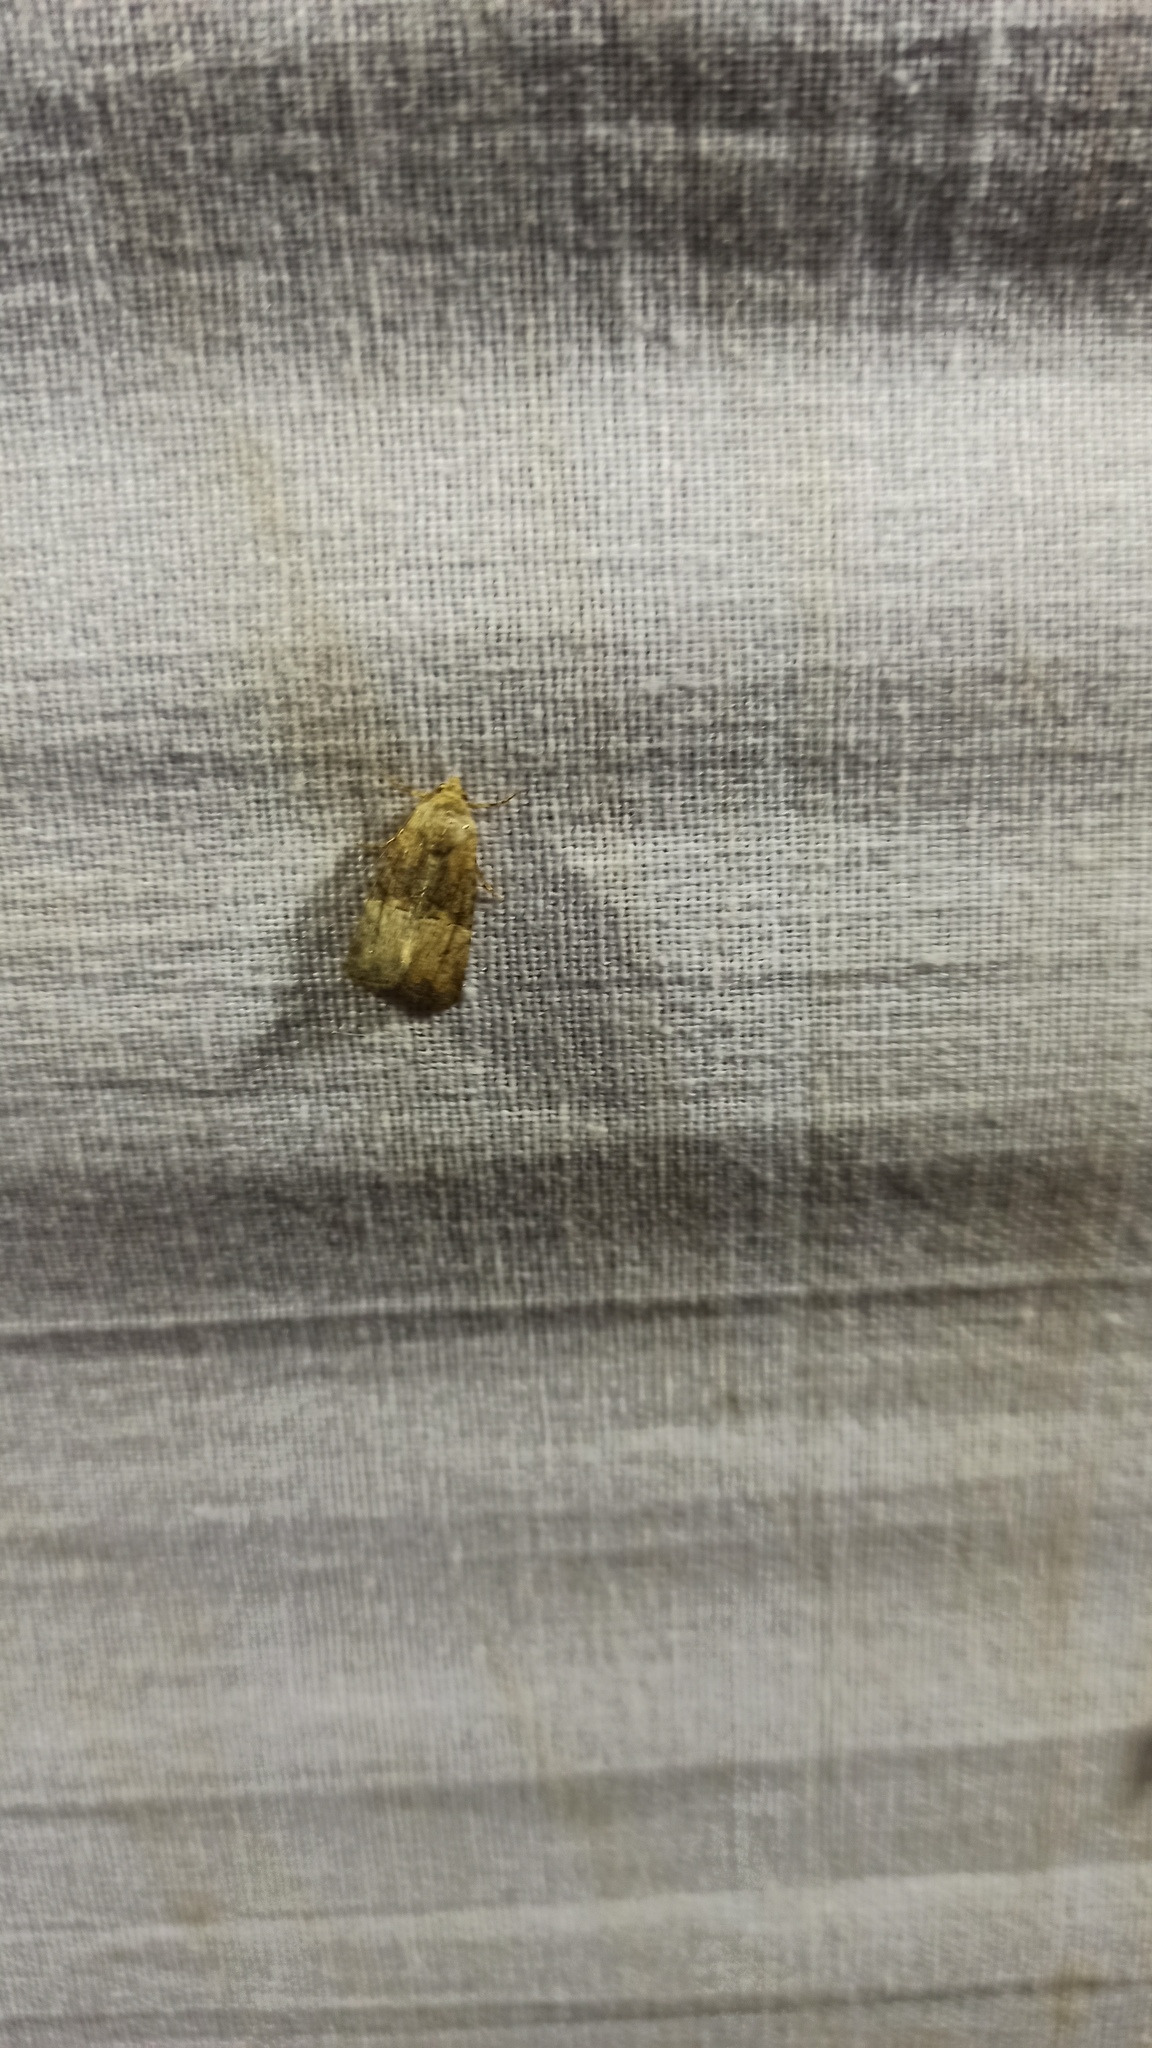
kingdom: Animalia
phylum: Arthropoda
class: Insecta
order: Lepidoptera
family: Noctuidae
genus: Mesoligia
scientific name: Mesoligia furuncula
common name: Cloaked minor
